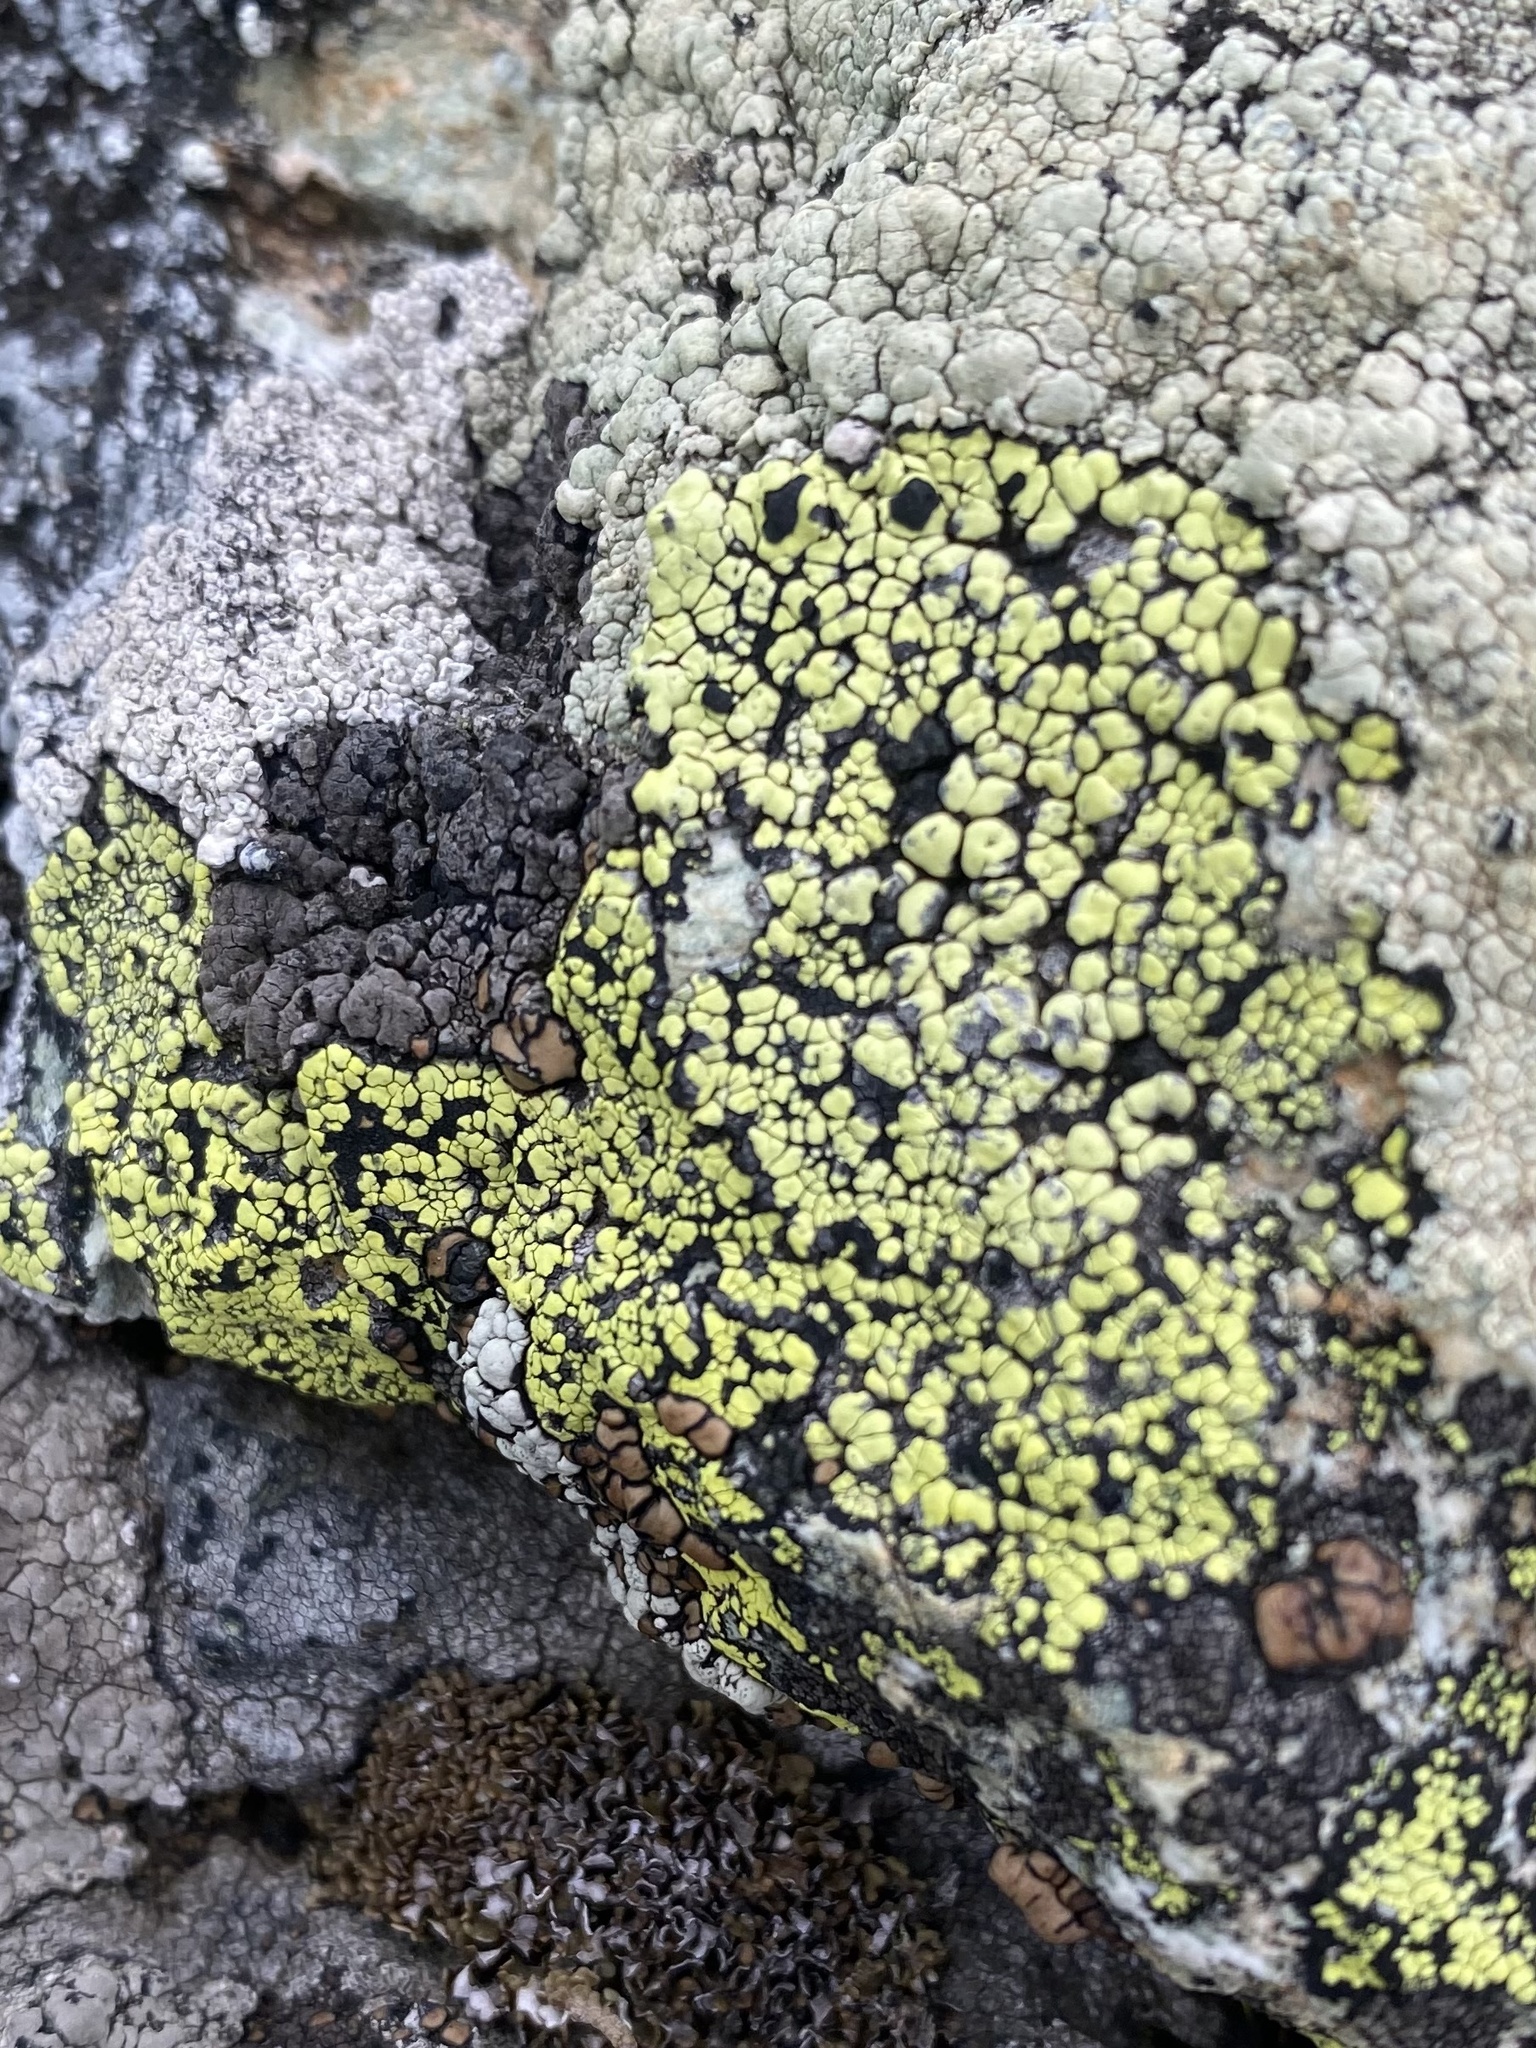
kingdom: Fungi
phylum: Ascomycota
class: Lecanoromycetes
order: Rhizocarpales
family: Rhizocarpaceae
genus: Rhizocarpon
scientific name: Rhizocarpon
